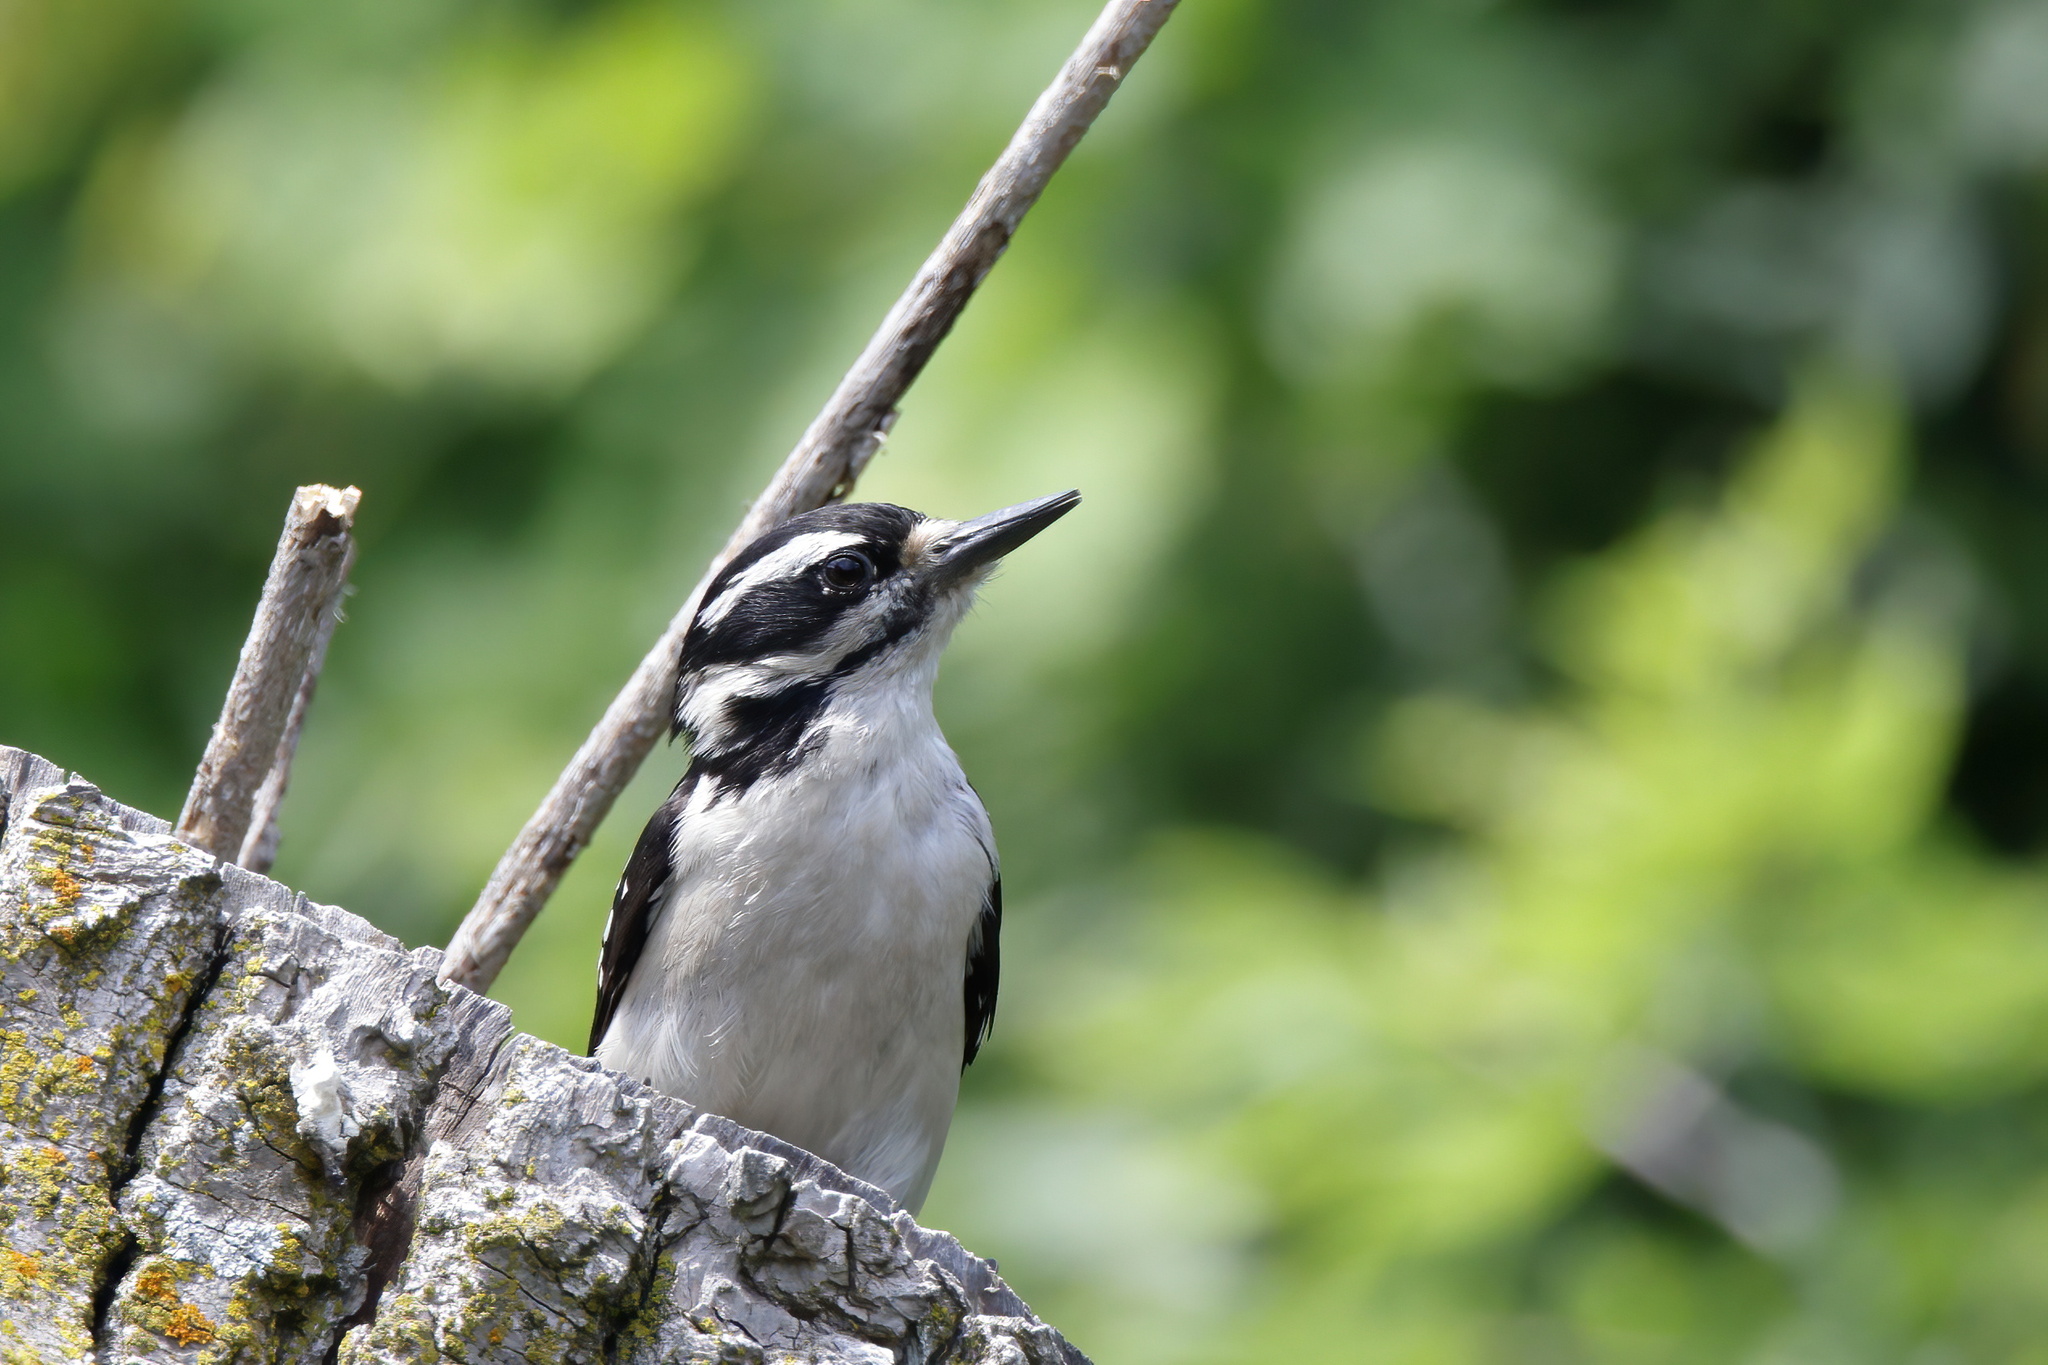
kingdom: Animalia
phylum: Chordata
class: Aves
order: Piciformes
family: Picidae
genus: Leuconotopicus
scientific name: Leuconotopicus villosus
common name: Hairy woodpecker
